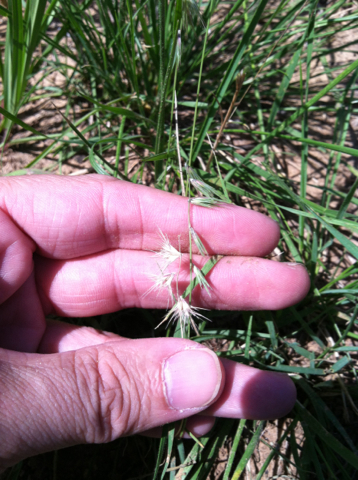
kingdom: Plantae
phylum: Tracheophyta
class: Liliopsida
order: Poales
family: Poaceae
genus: Bouteloua
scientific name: Bouteloua rigidiseta
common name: Texas grama
